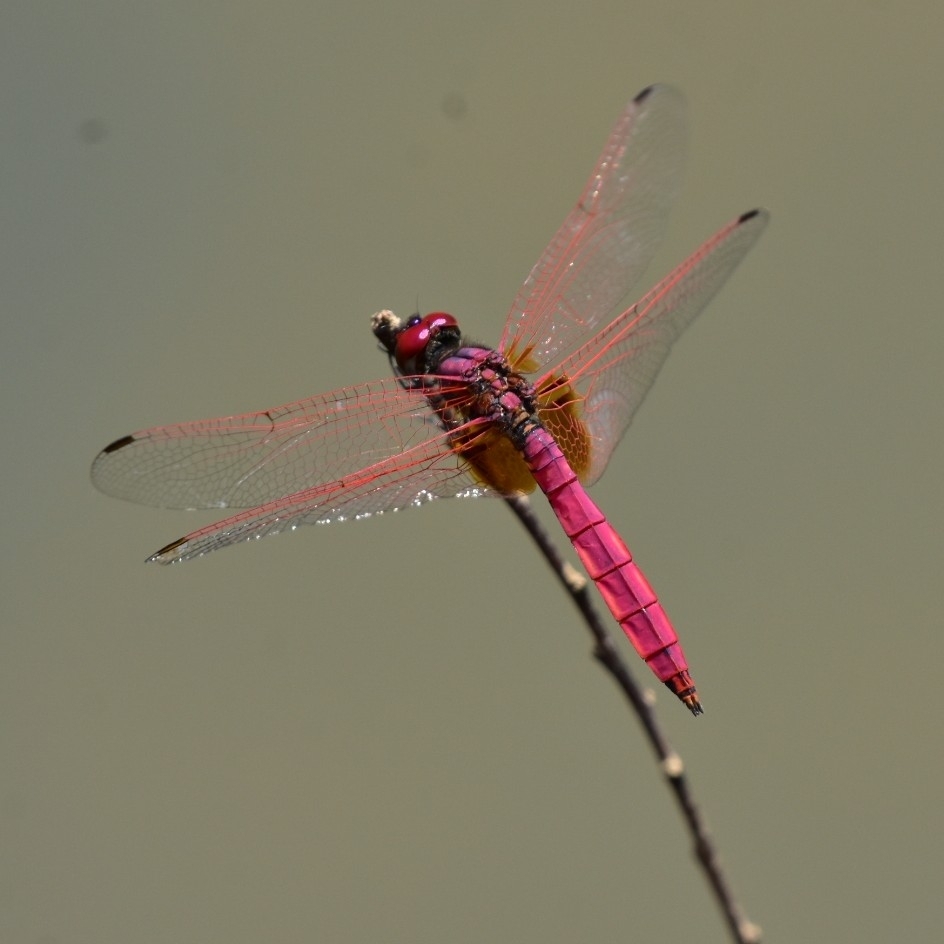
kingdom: Animalia
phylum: Arthropoda
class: Insecta
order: Odonata
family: Libellulidae
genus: Trithemis
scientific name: Trithemis aurora
